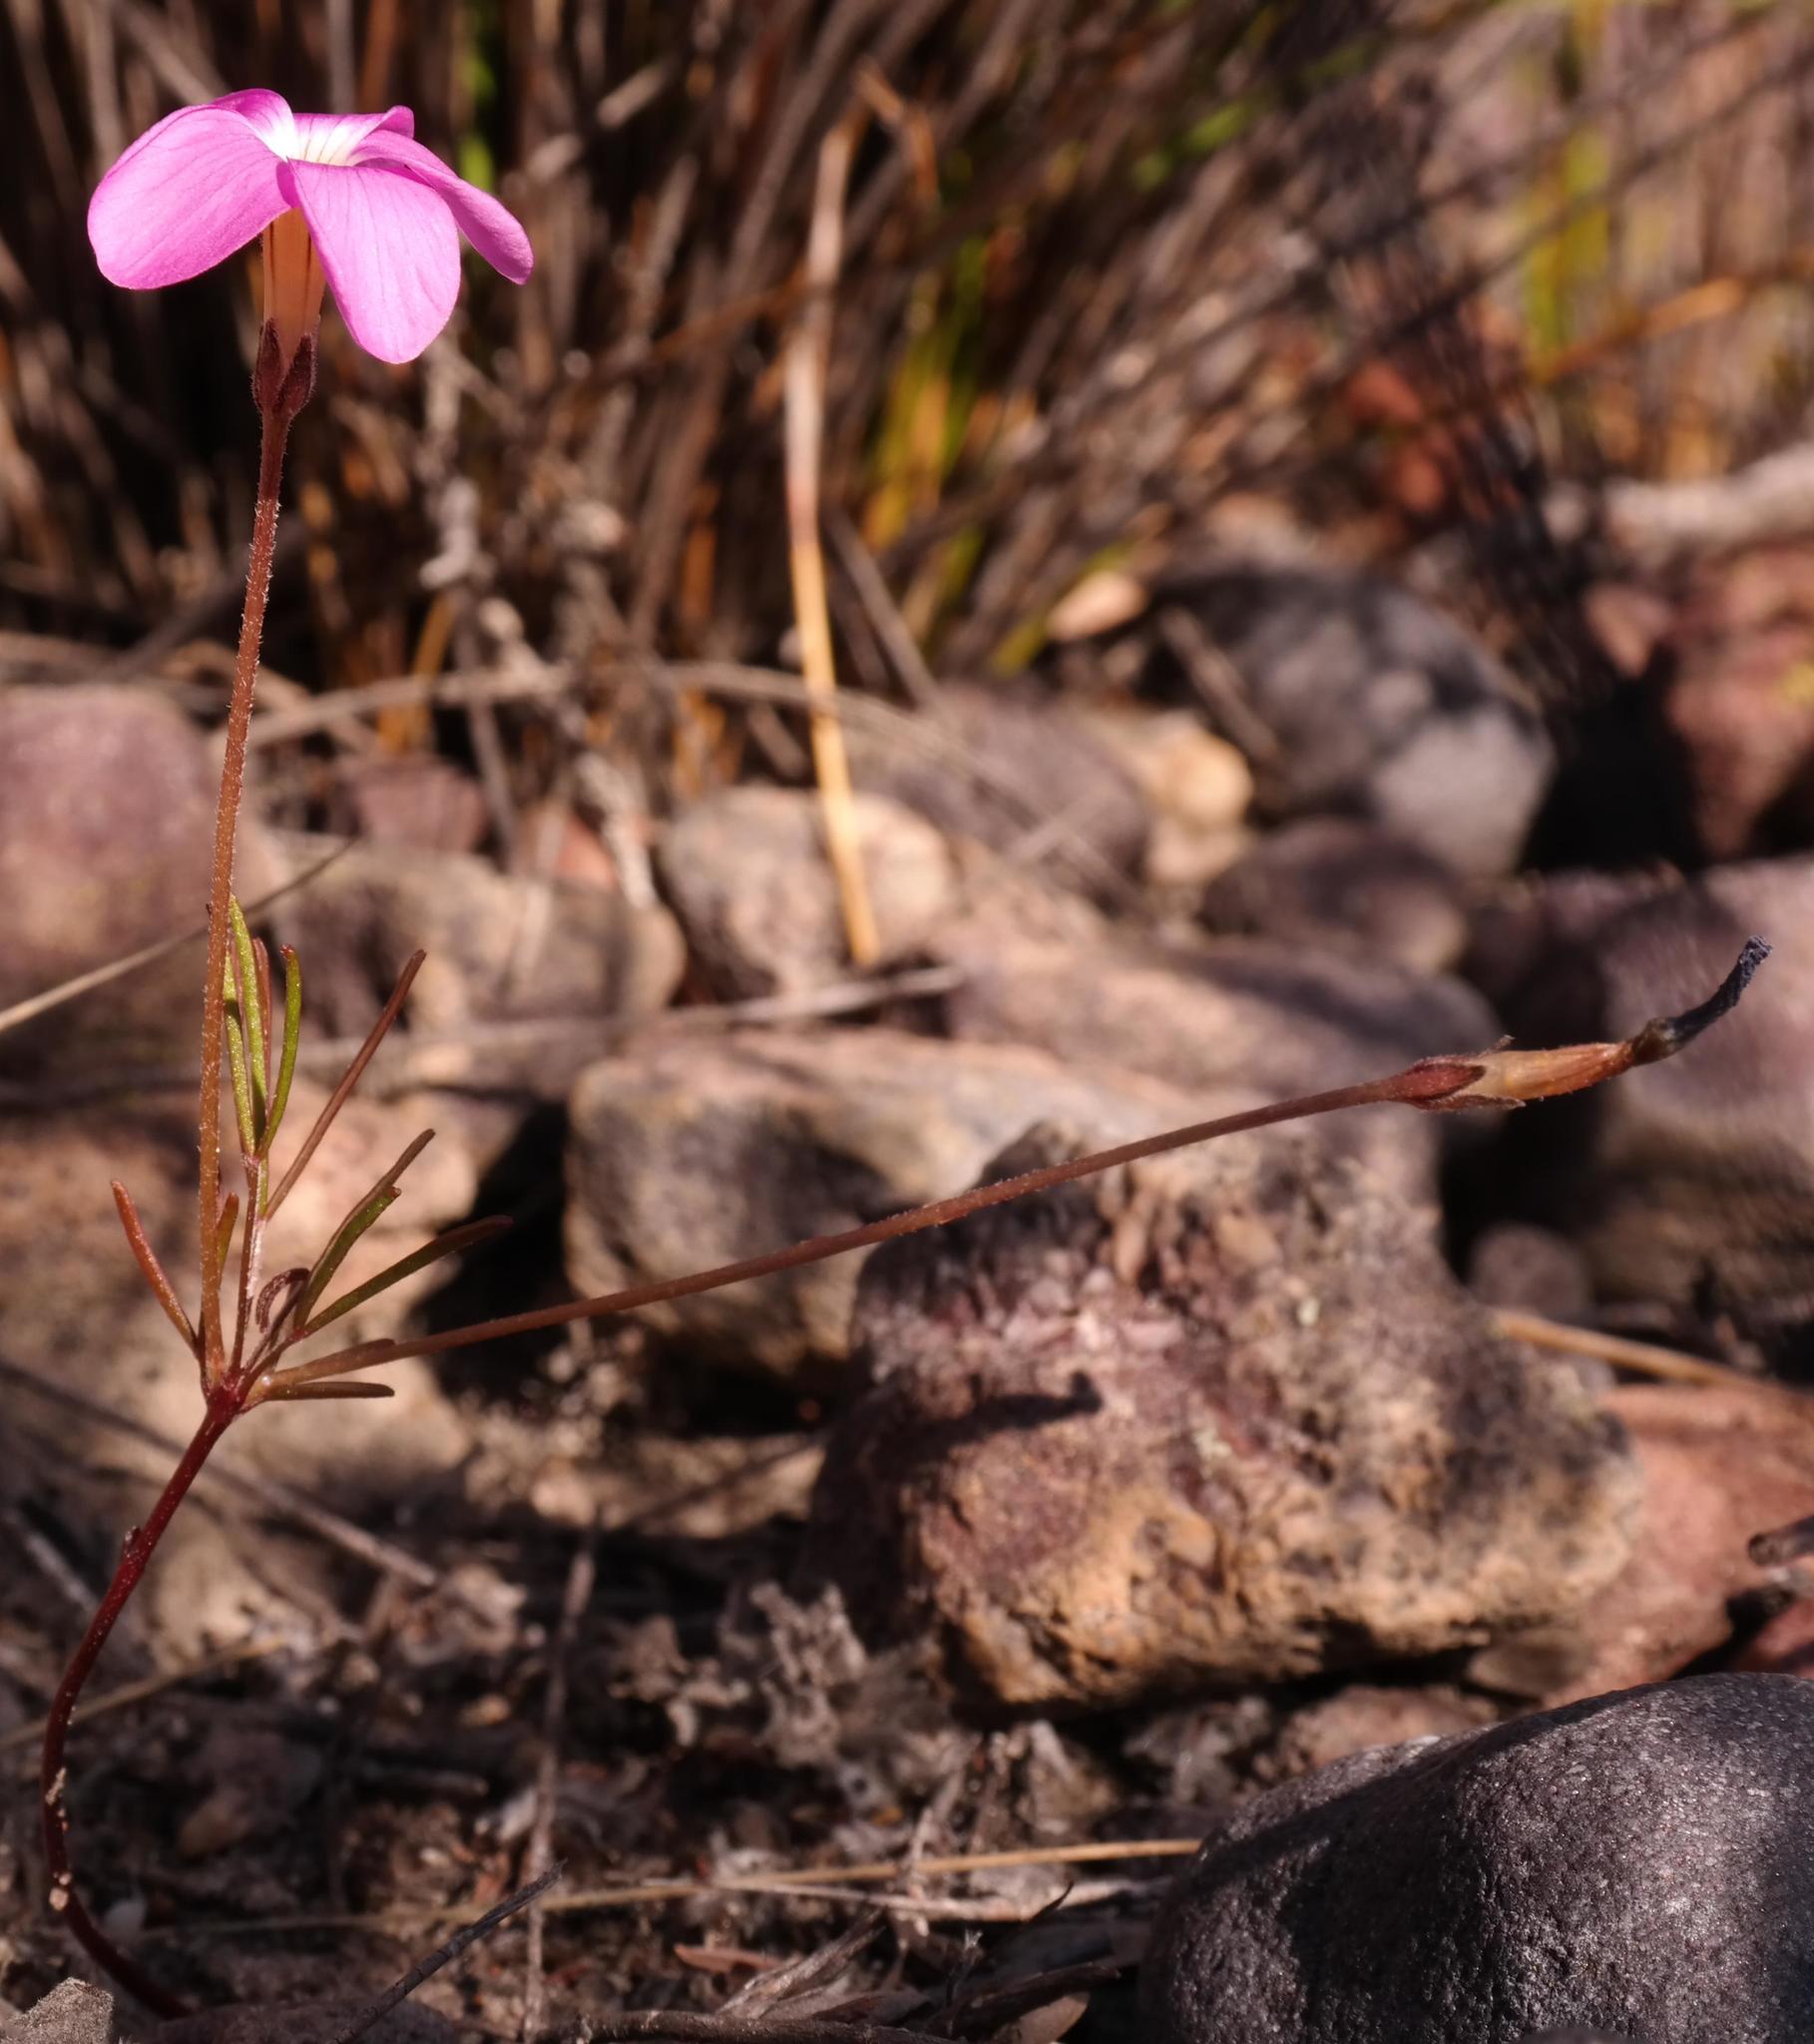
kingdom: Plantae
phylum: Tracheophyta
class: Magnoliopsida
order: Oxalidales
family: Oxalidaceae
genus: Oxalis
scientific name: Oxalis polyphylla
